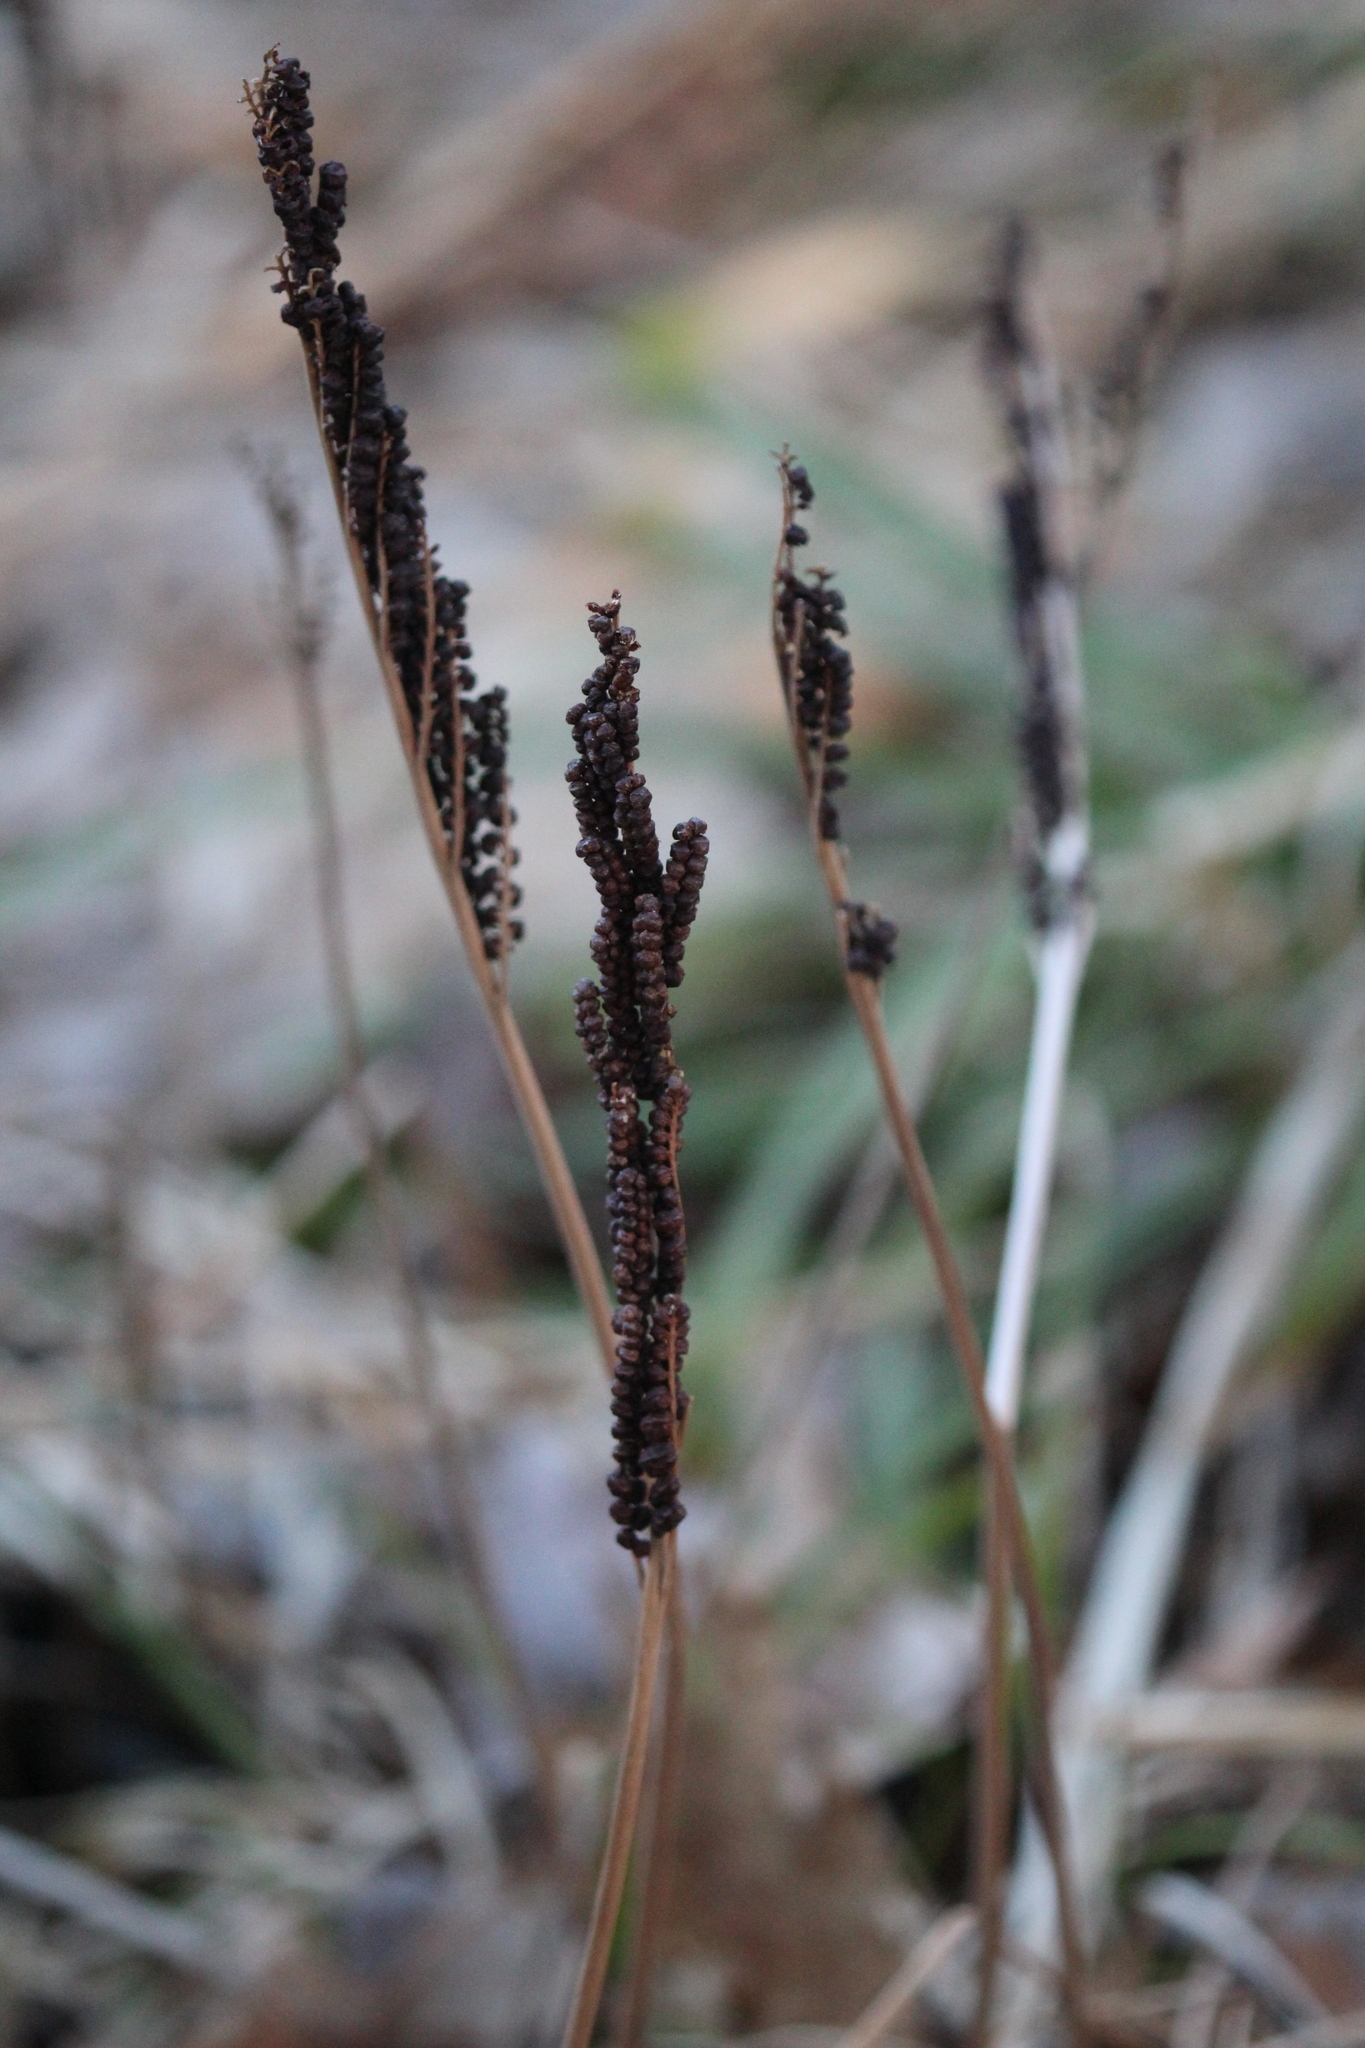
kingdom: Plantae
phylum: Tracheophyta
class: Polypodiopsida
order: Polypodiales
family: Onocleaceae
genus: Onoclea
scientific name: Onoclea sensibilis
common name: Sensitive fern
